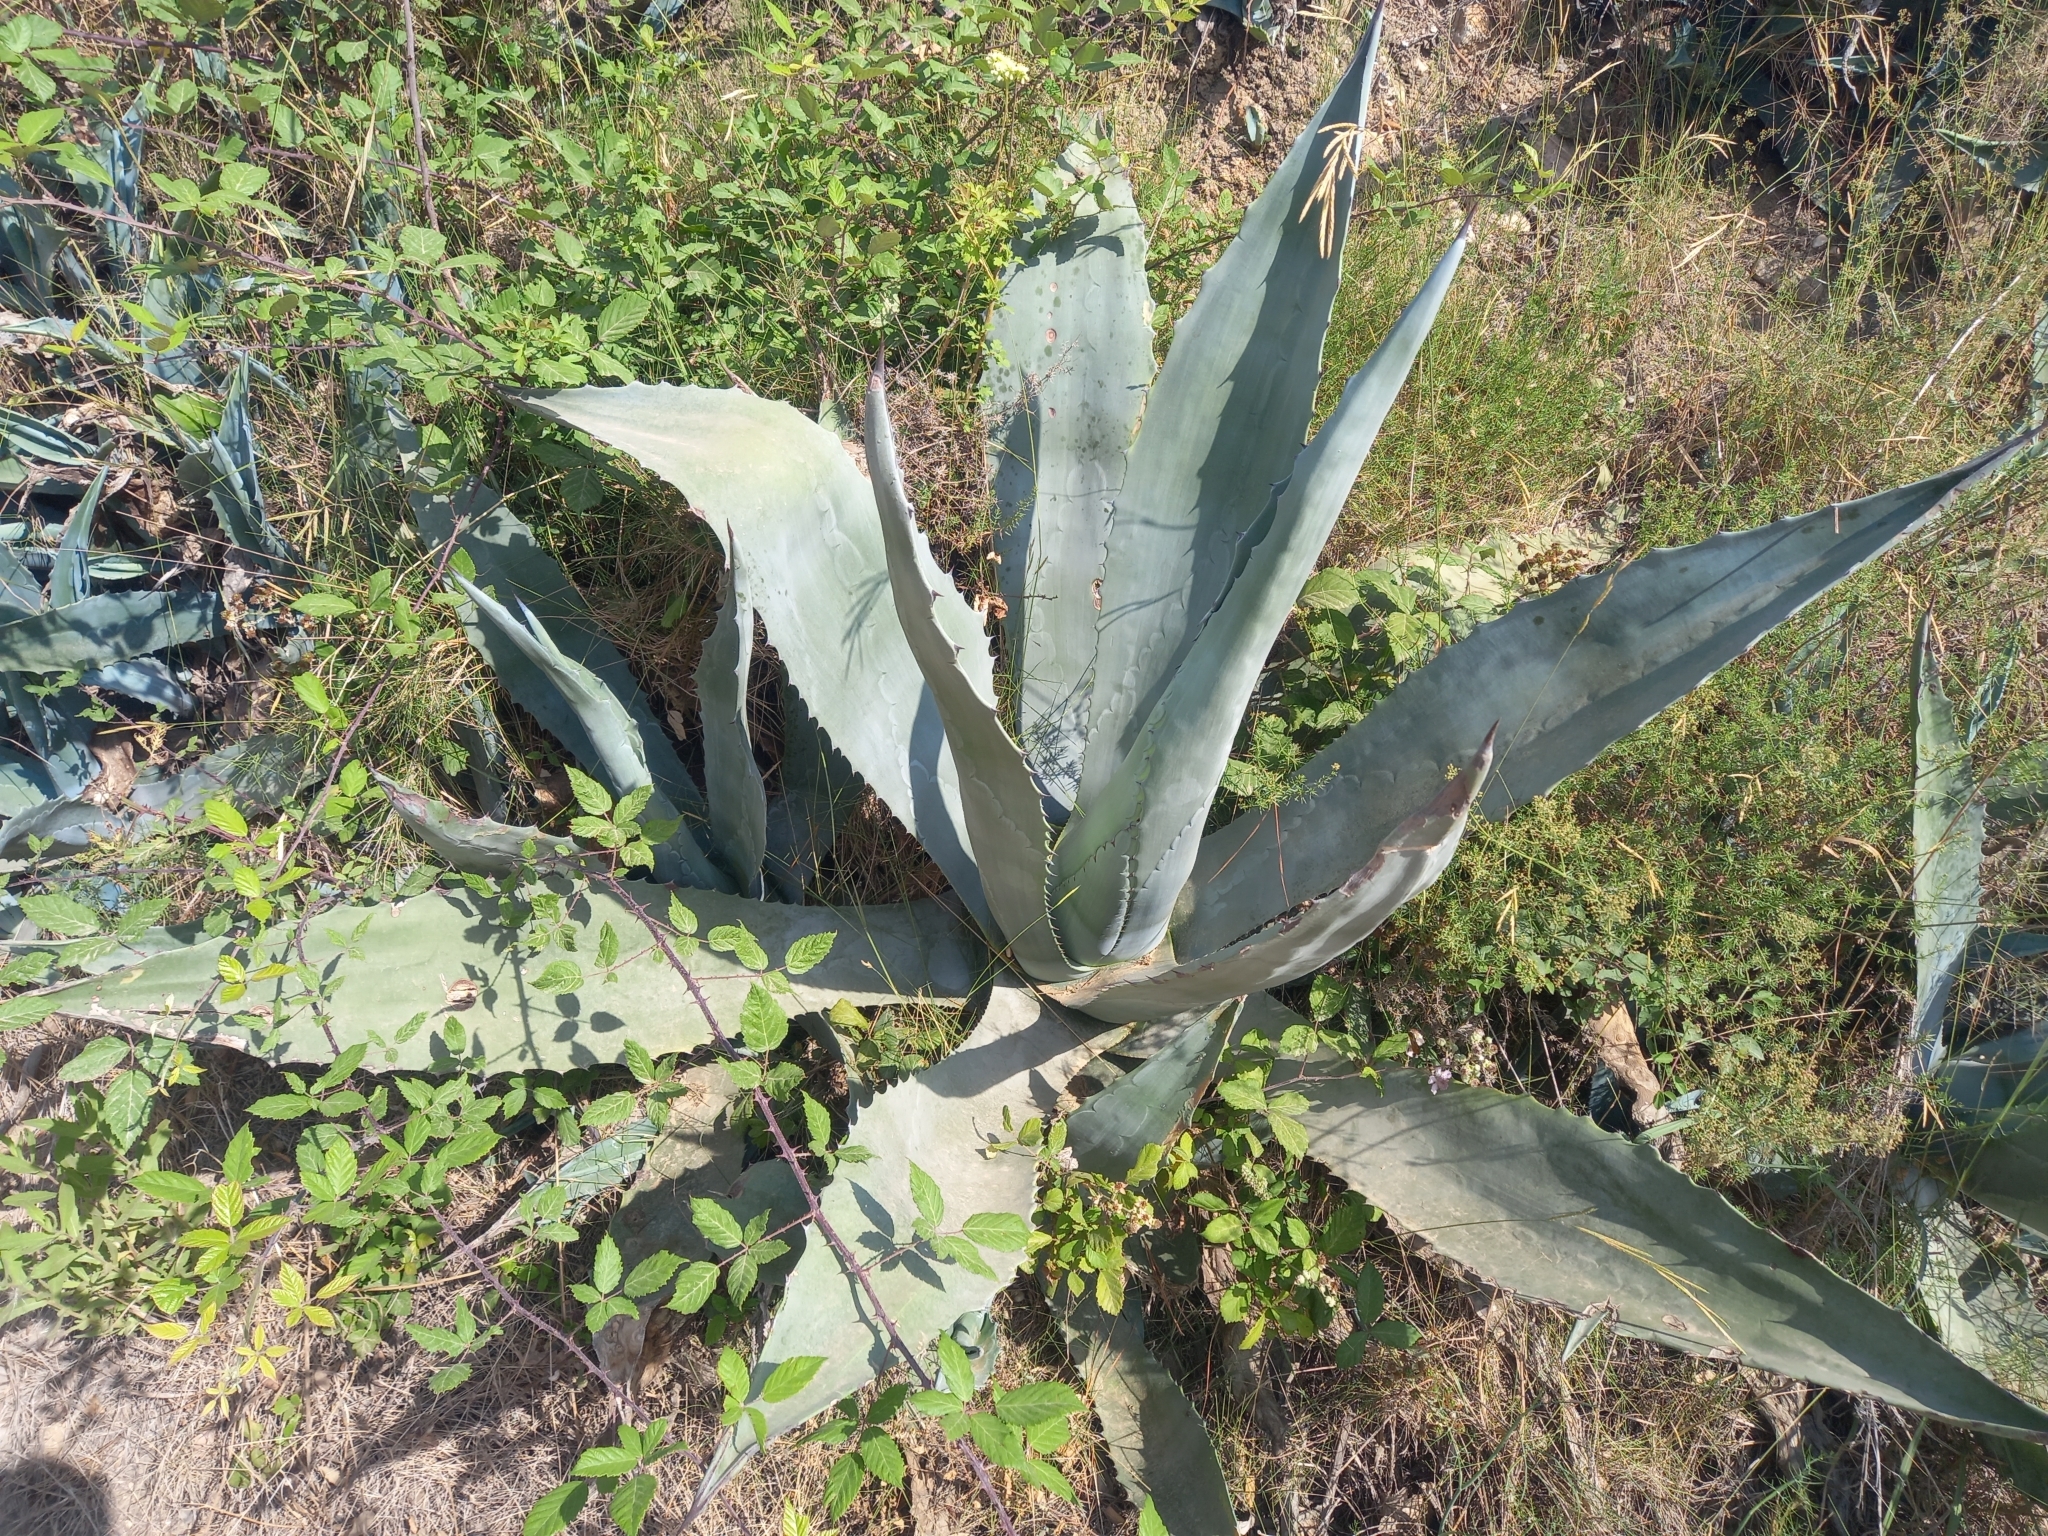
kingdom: Plantae
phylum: Tracheophyta
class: Liliopsida
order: Asparagales
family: Asparagaceae
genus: Agave
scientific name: Agave americana
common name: Centuryplant
